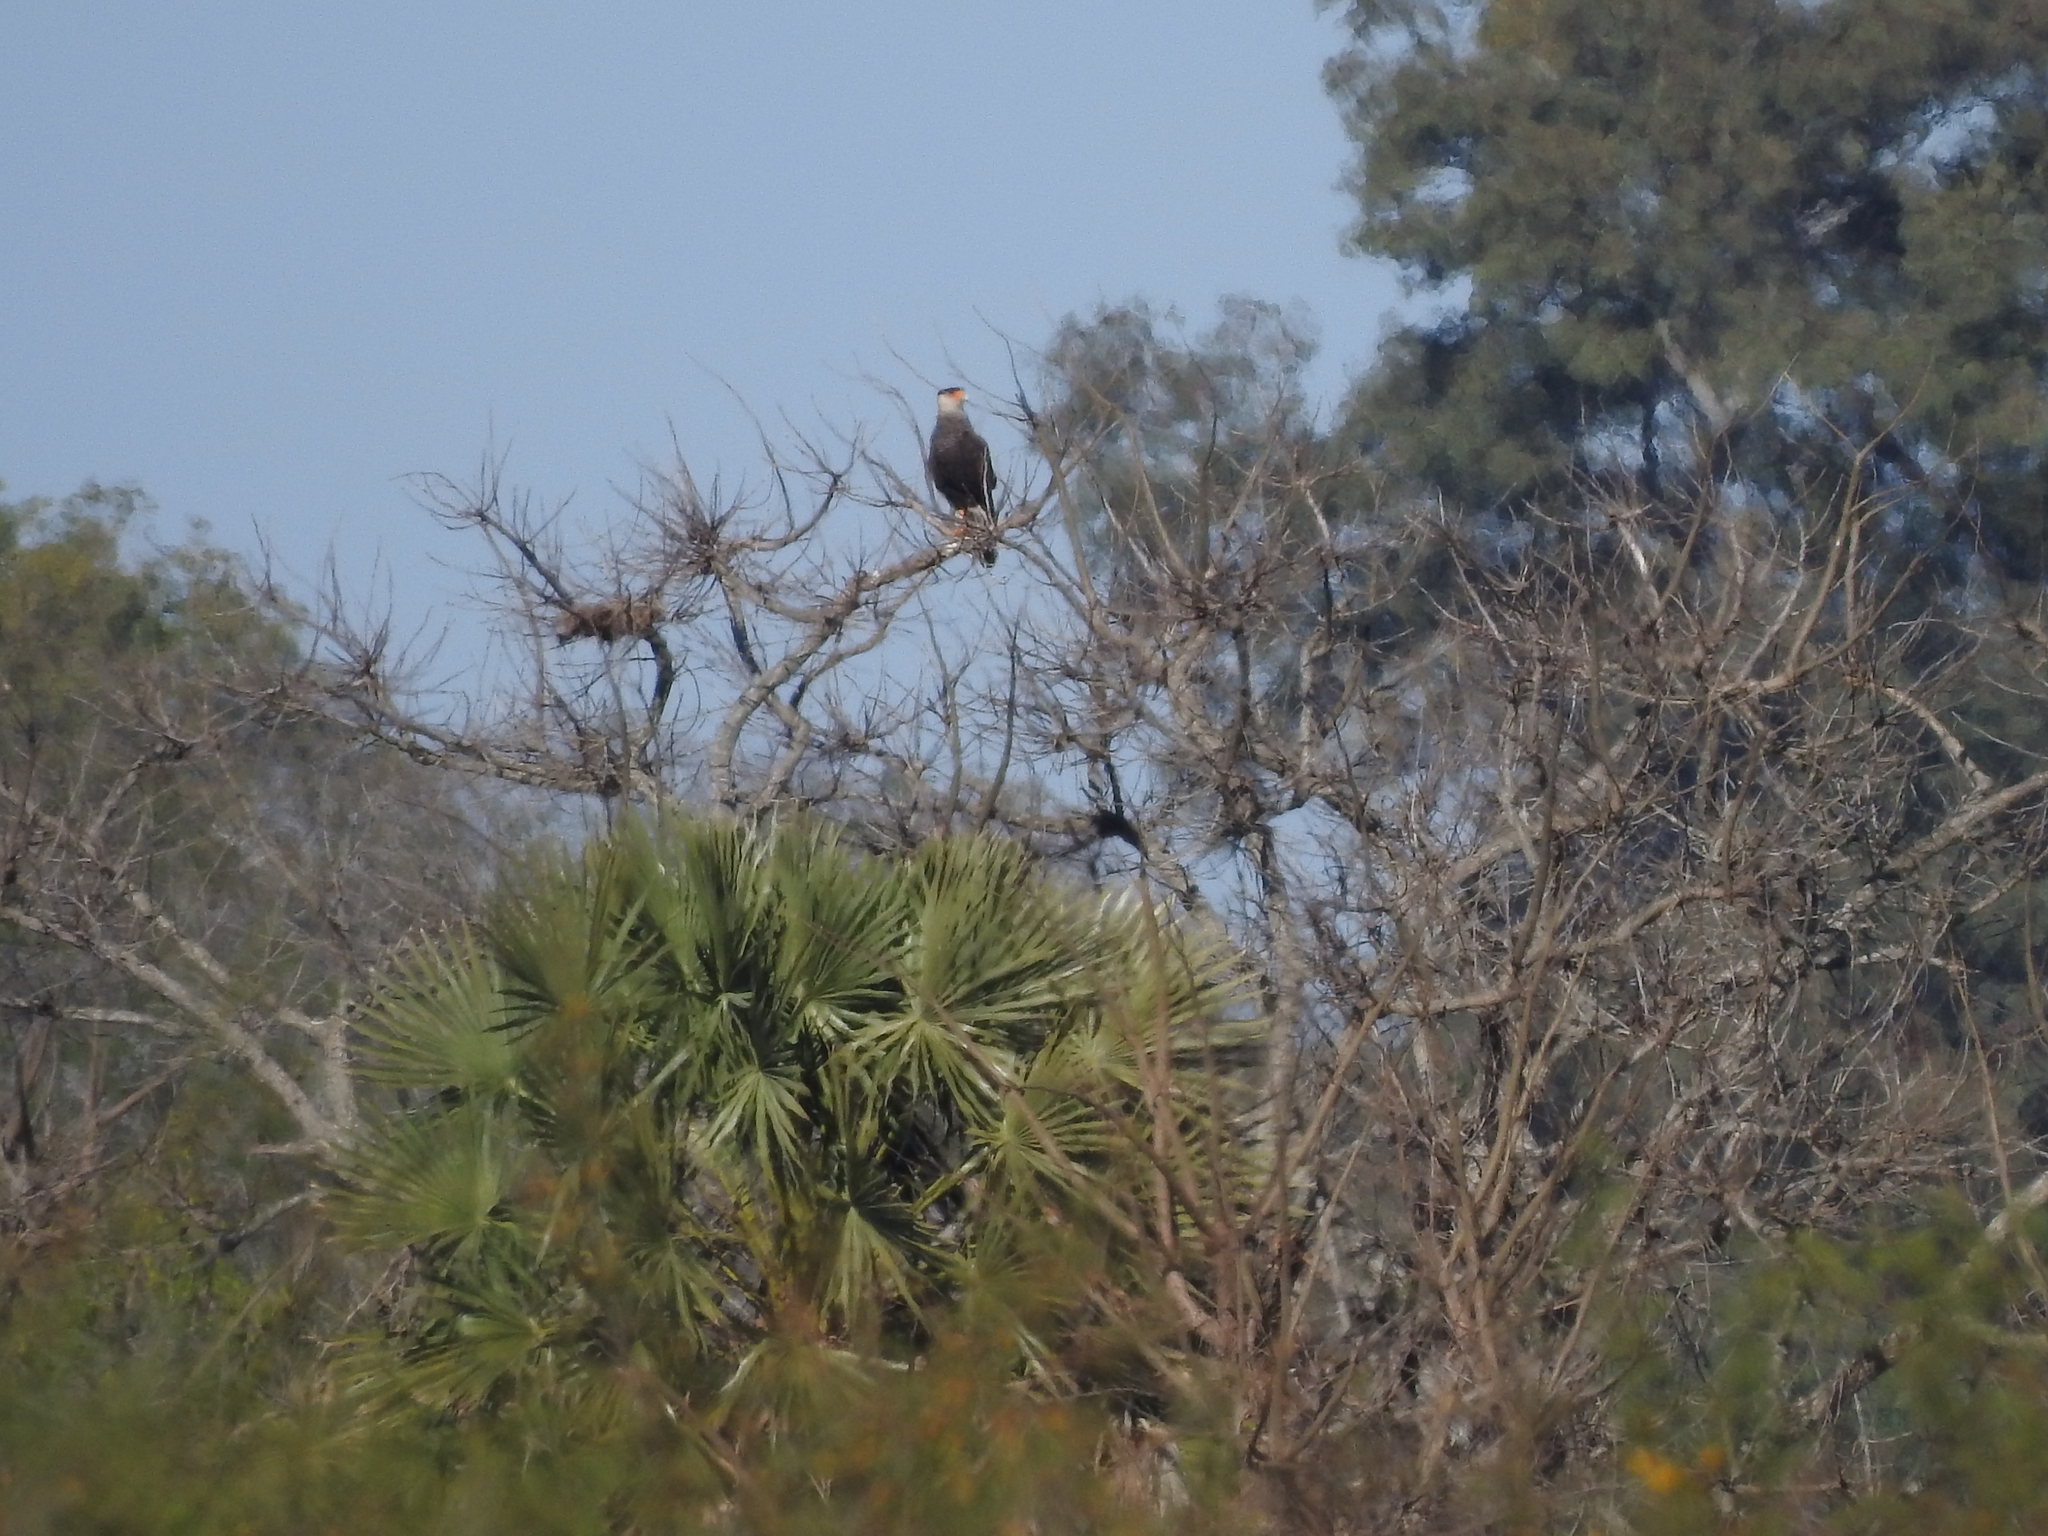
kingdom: Animalia
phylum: Chordata
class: Aves
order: Falconiformes
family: Falconidae
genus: Caracara
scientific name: Caracara plancus
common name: Southern caracara
